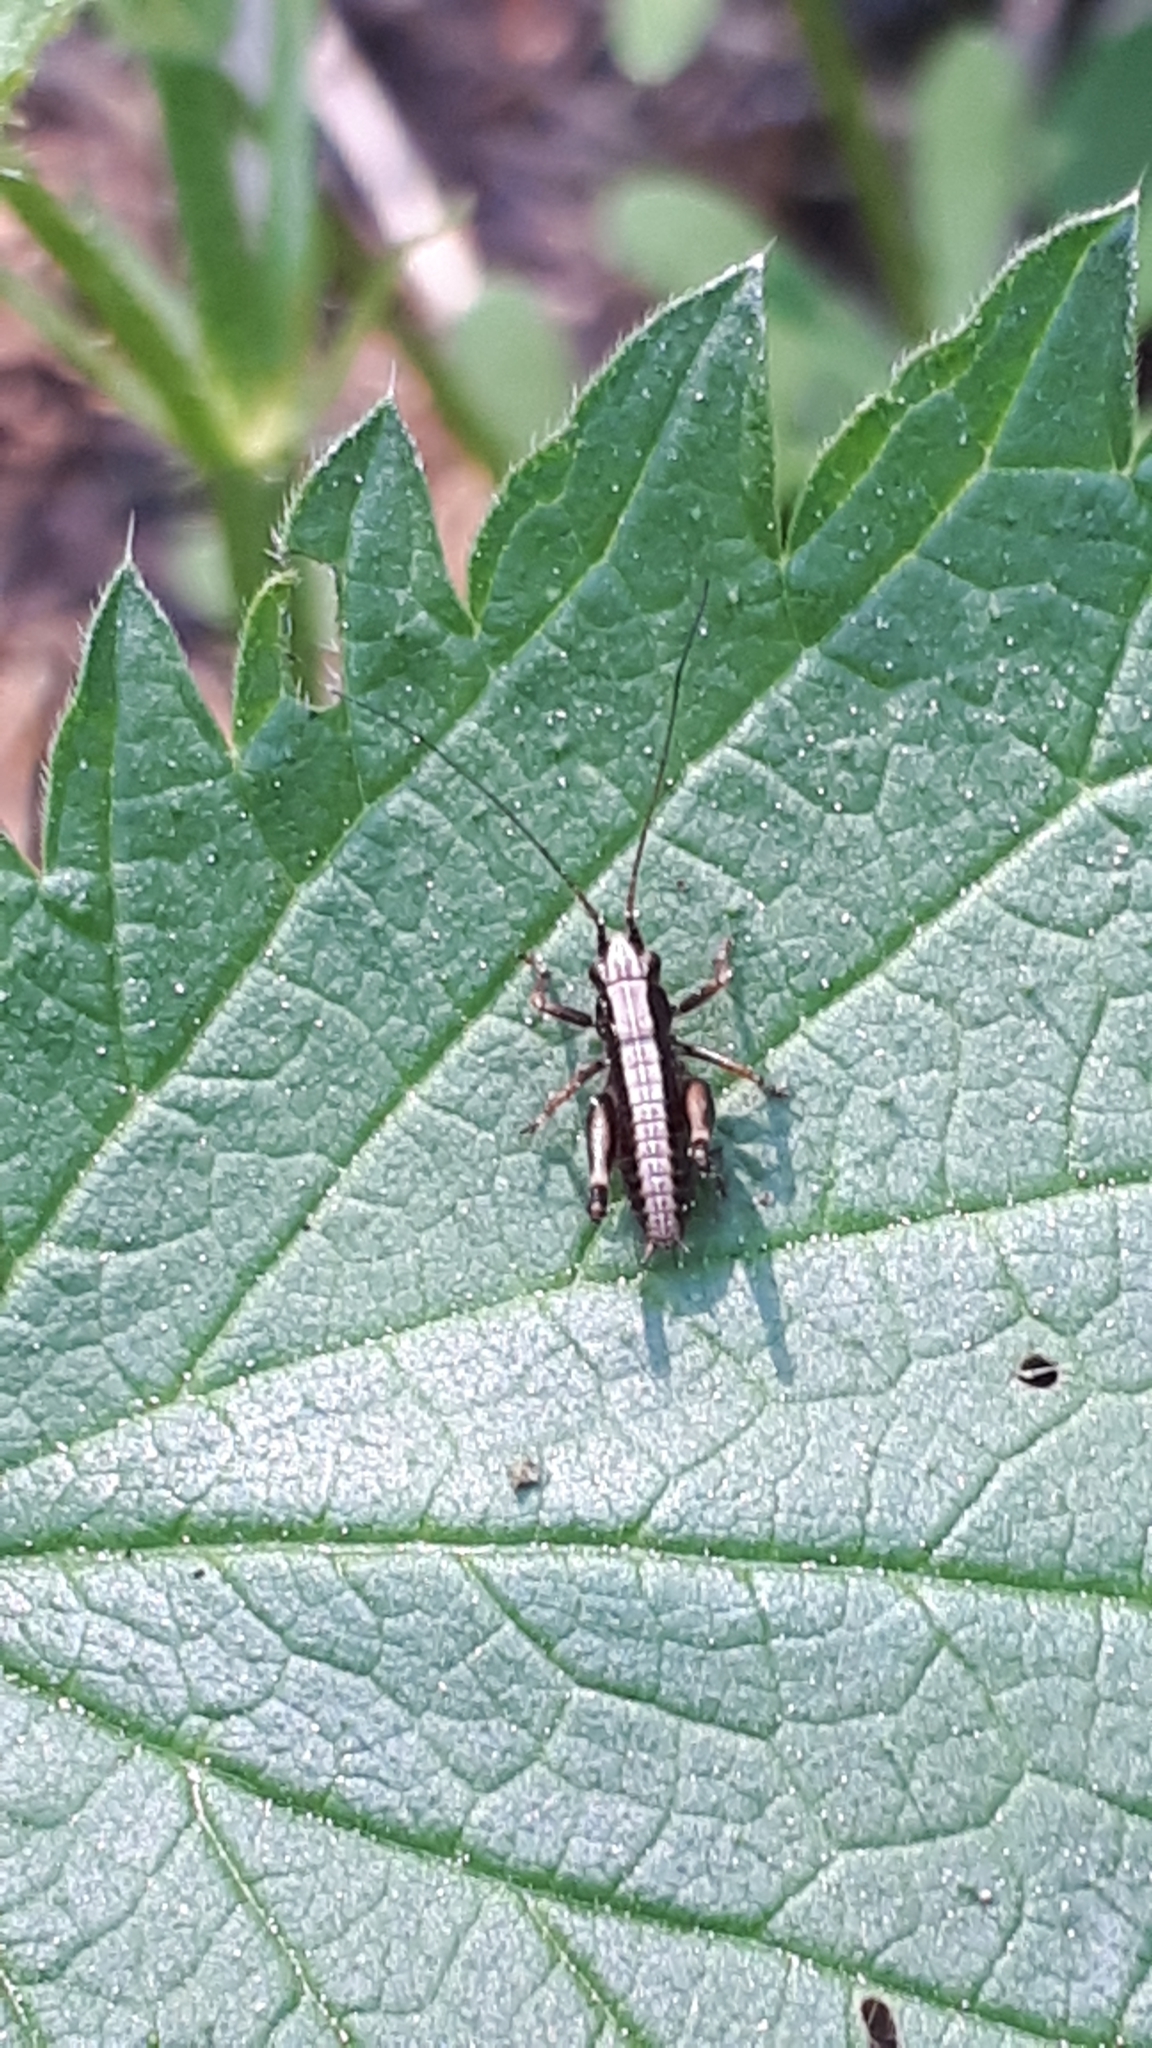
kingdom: Animalia
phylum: Arthropoda
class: Insecta
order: Orthoptera
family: Tettigoniidae
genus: Pholidoptera
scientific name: Pholidoptera griseoaptera
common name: Dark bush-cricket
